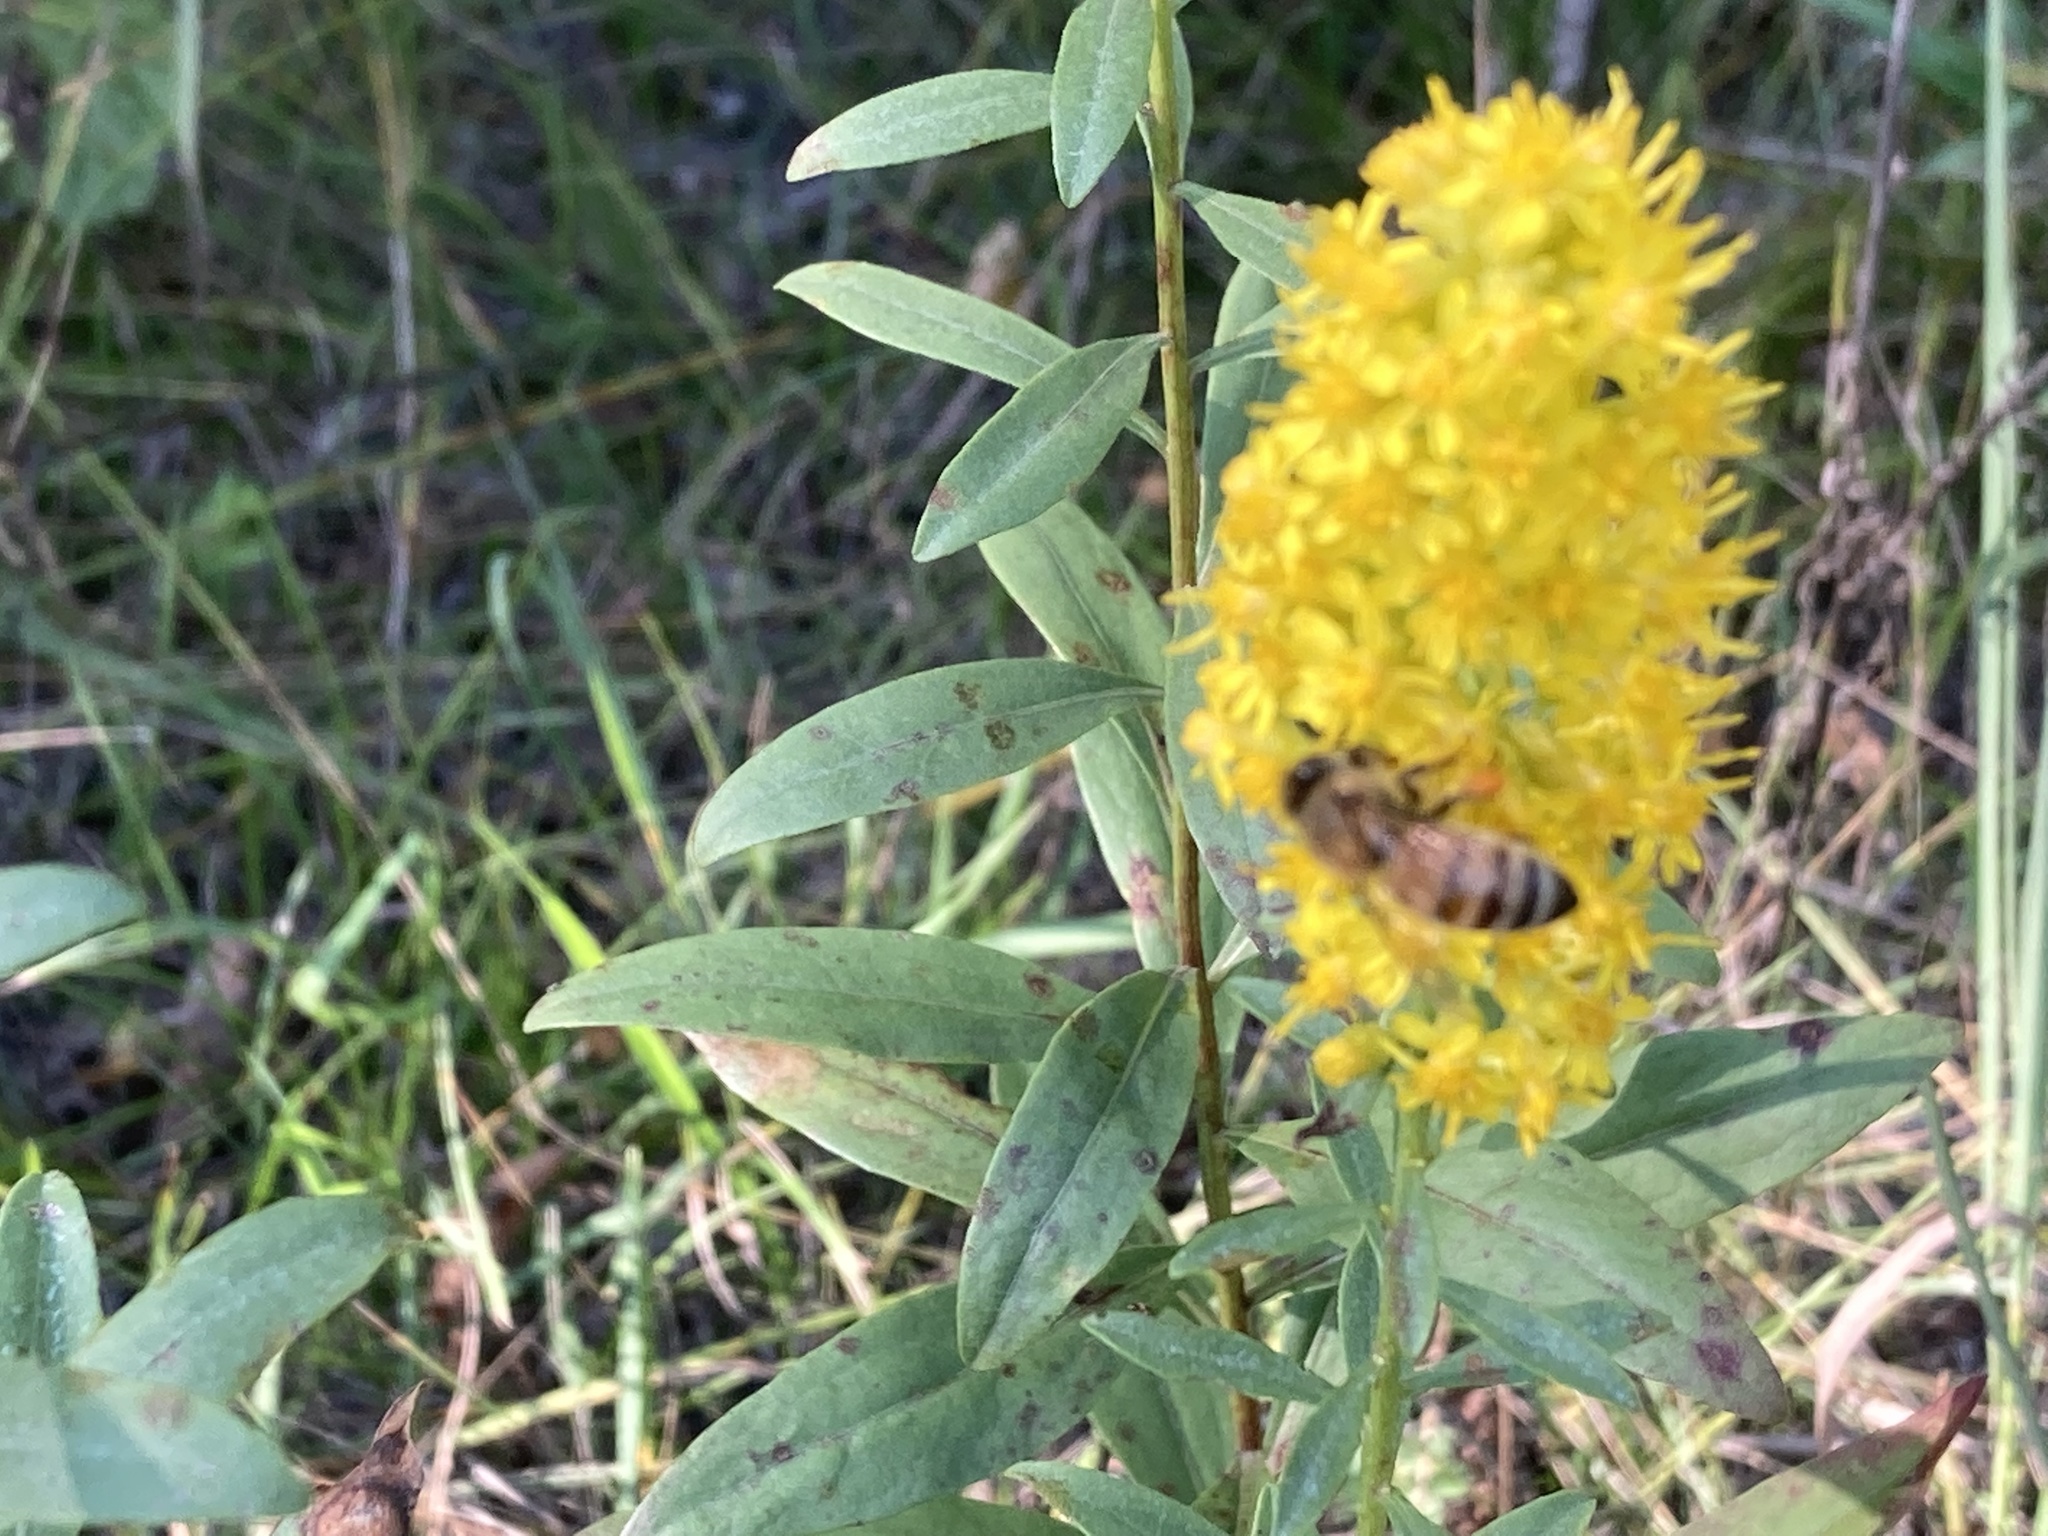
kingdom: Animalia
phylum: Arthropoda
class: Insecta
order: Hymenoptera
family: Apidae
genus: Apis
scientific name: Apis mellifera
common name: Honey bee
